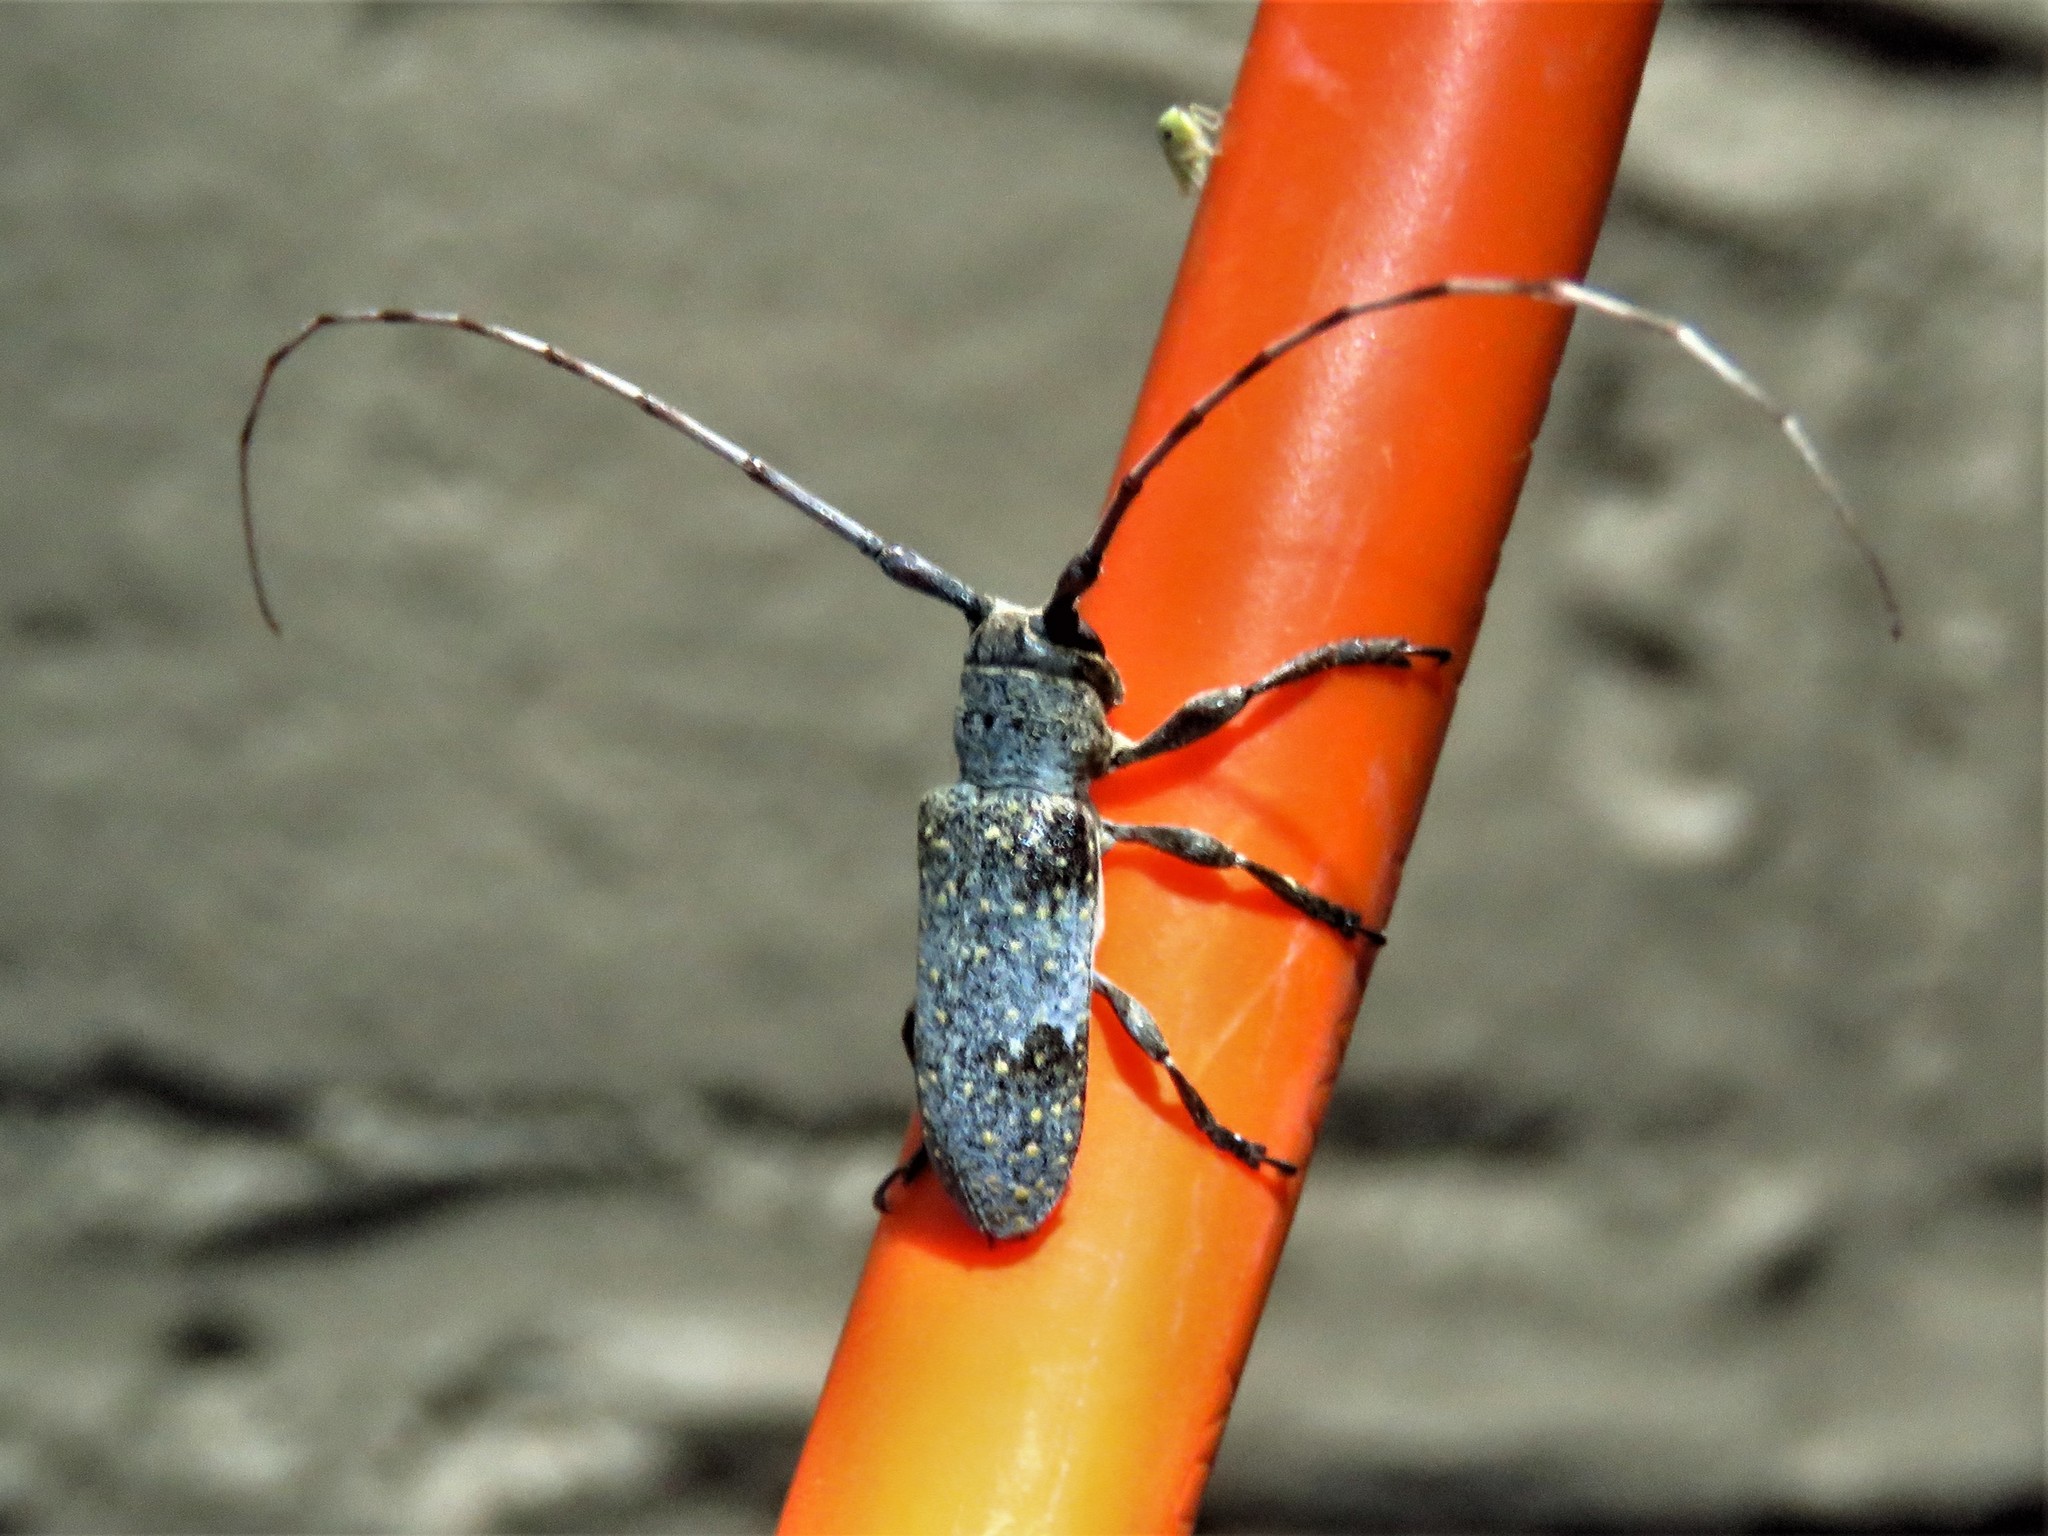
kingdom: Animalia
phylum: Arthropoda
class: Insecta
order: Coleoptera
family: Cerambycidae
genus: Oncideres
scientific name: Oncideres cingulata
